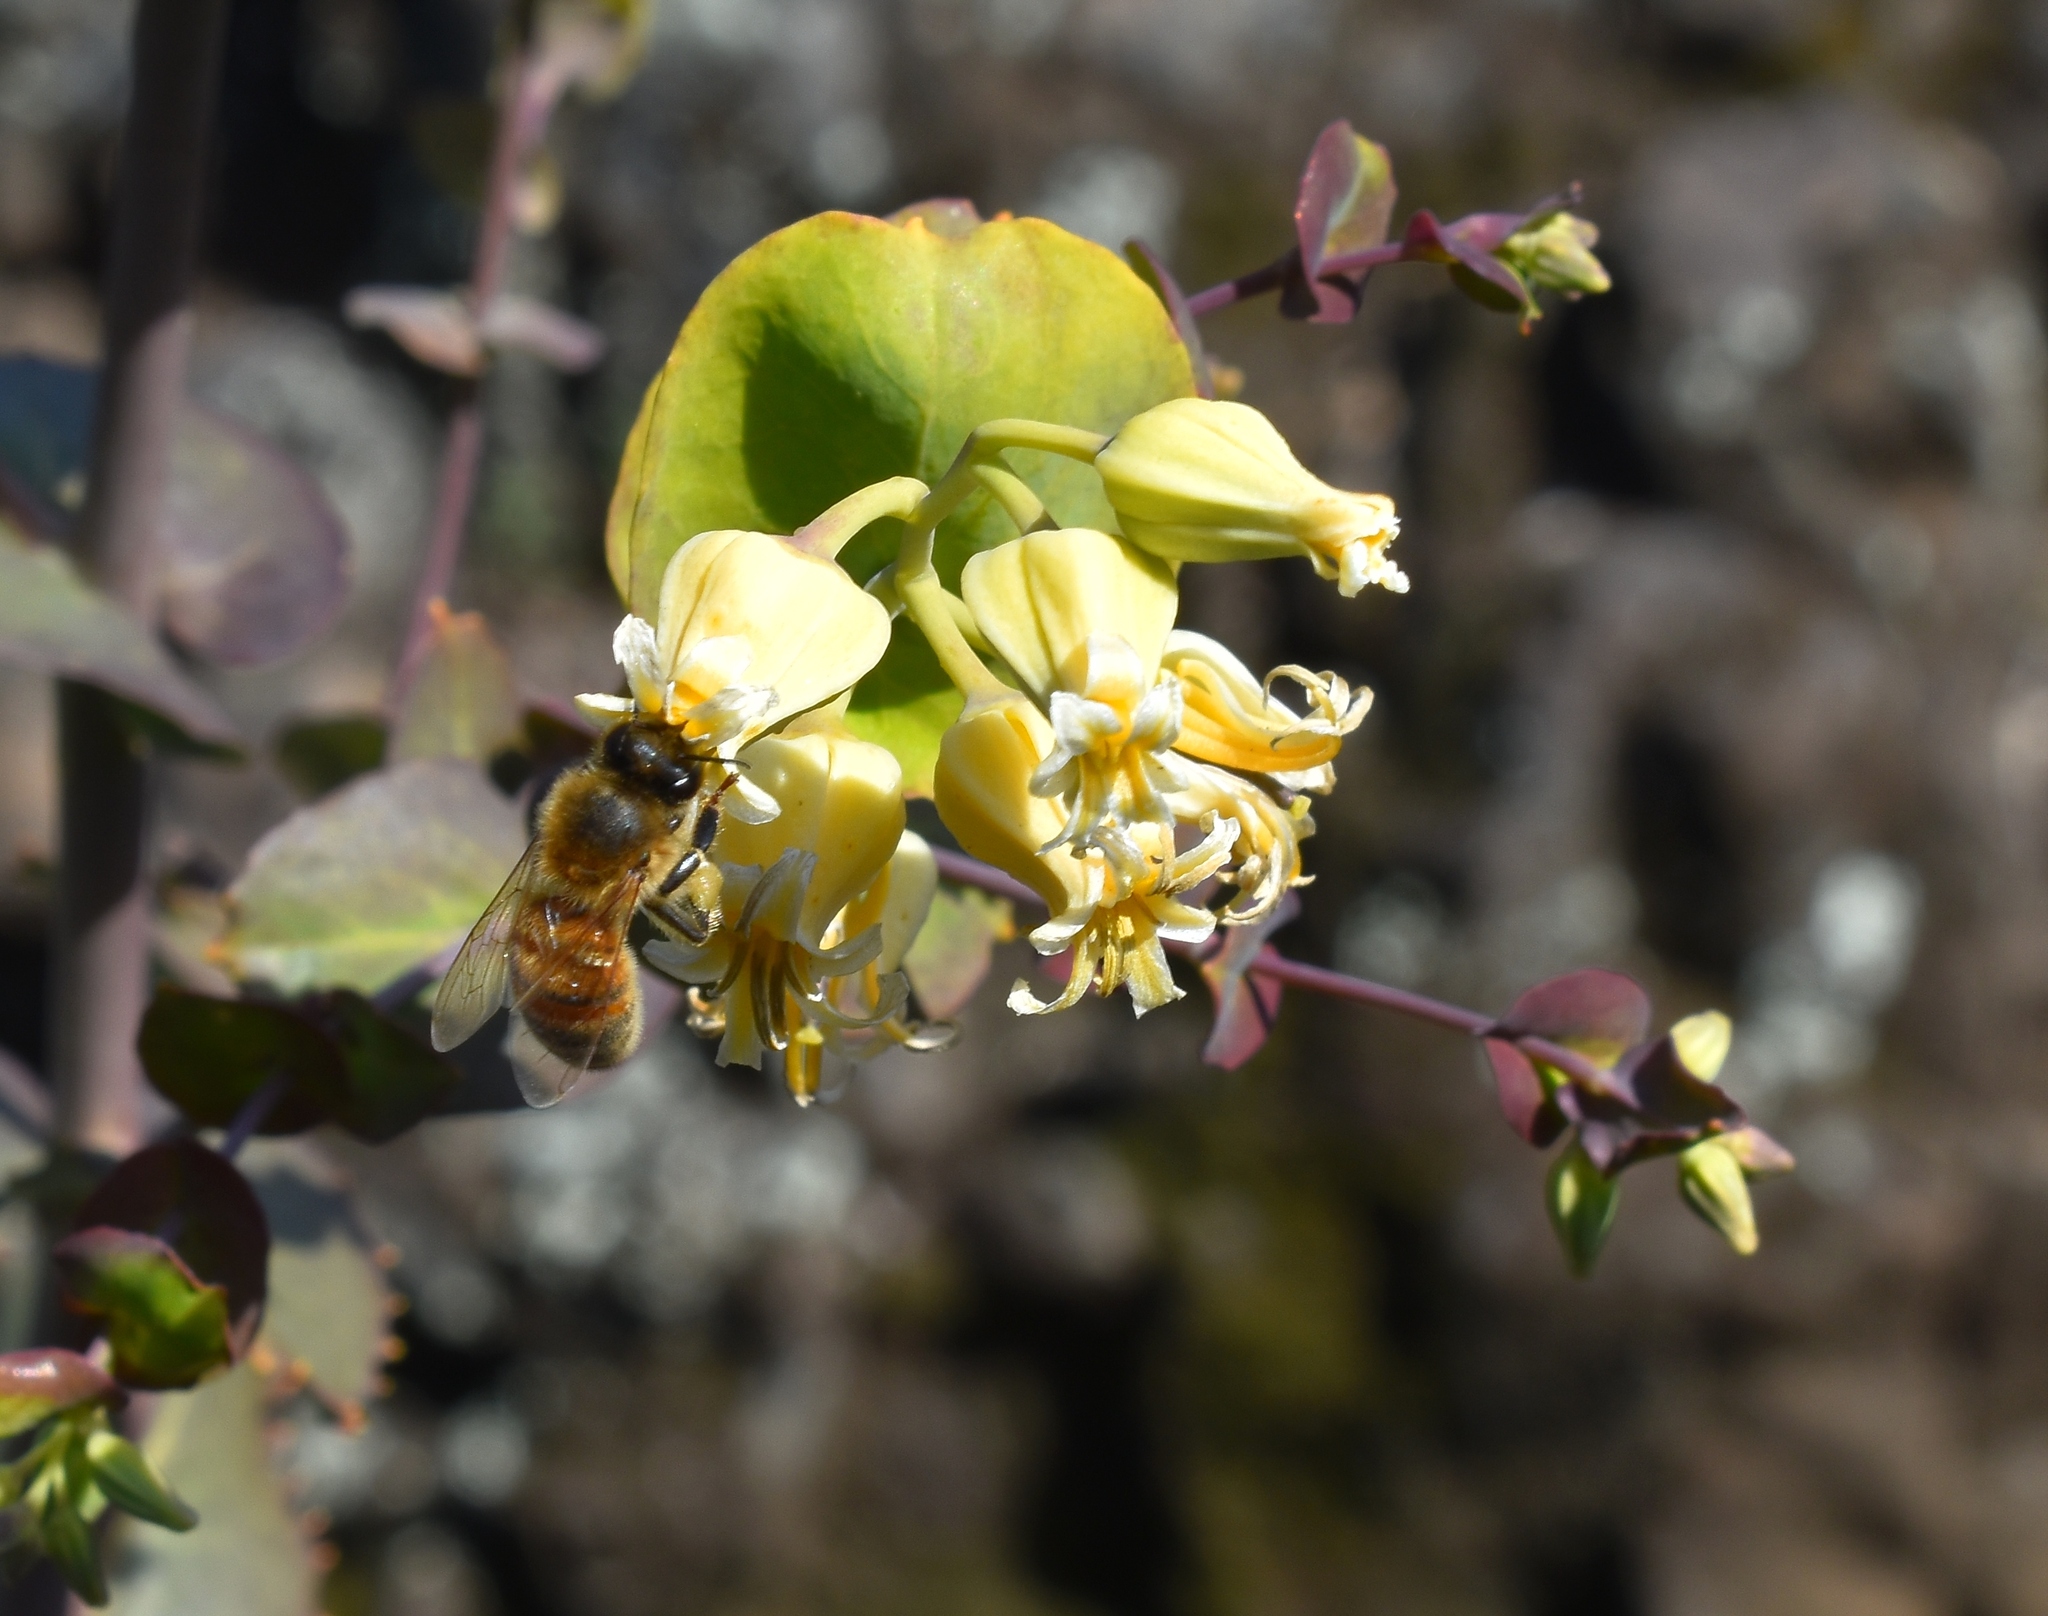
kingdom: Animalia
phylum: Arthropoda
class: Insecta
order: Hymenoptera
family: Apidae
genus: Apis
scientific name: Apis mellifera
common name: Honey bee
